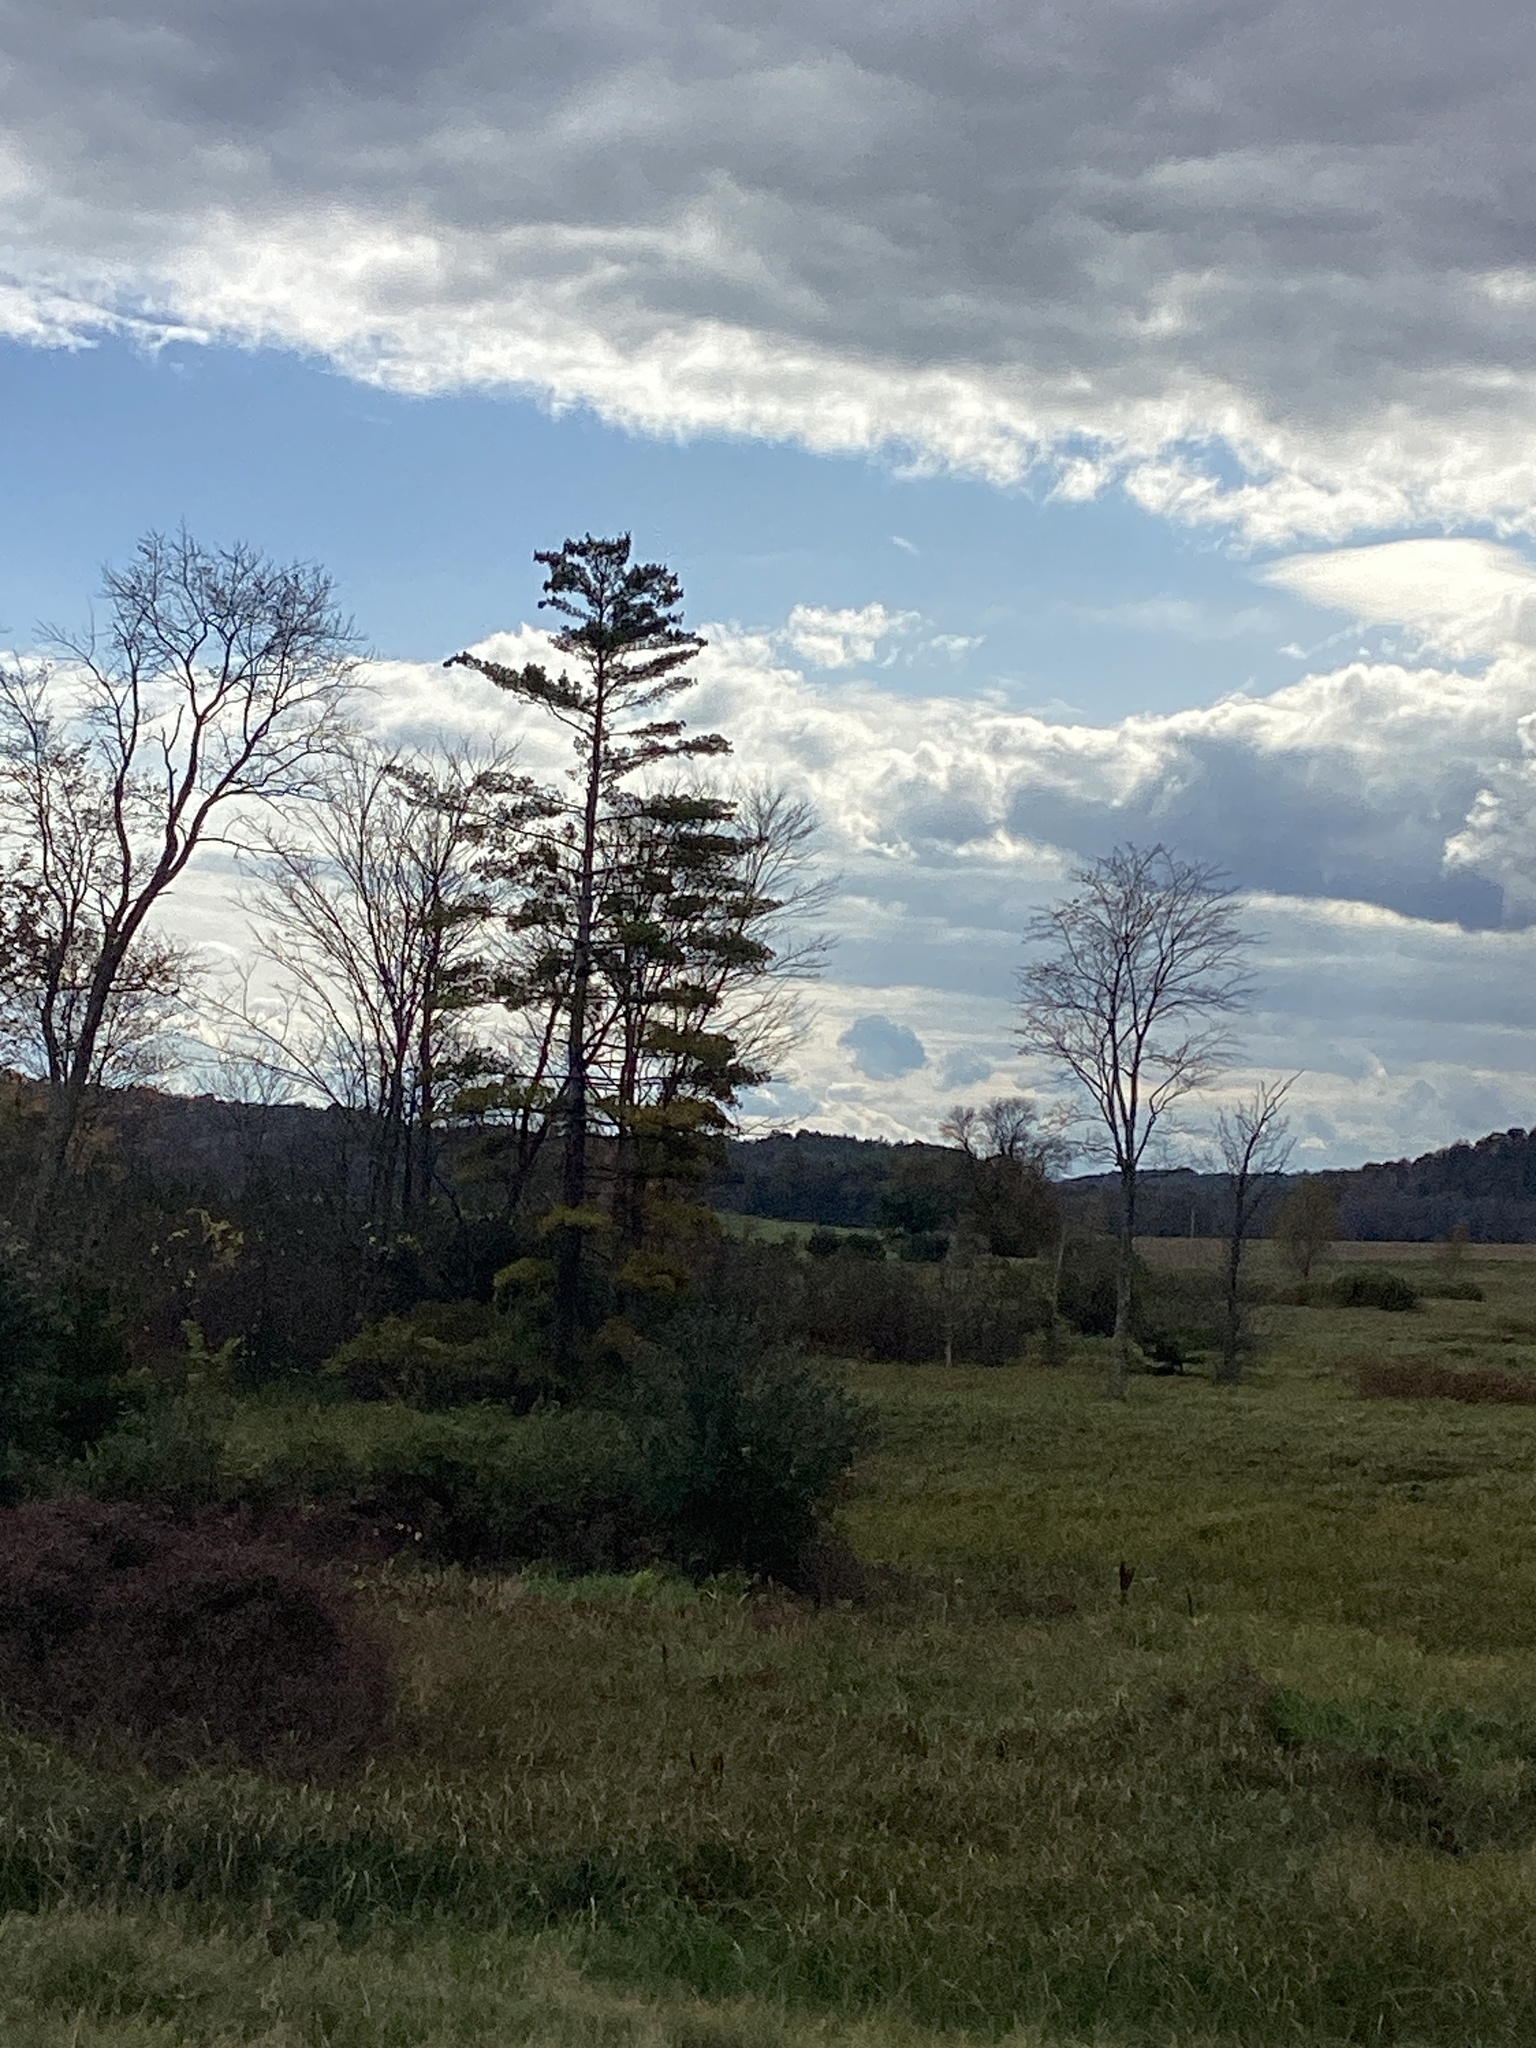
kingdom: Plantae
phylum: Tracheophyta
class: Pinopsida
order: Pinales
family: Pinaceae
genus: Pinus
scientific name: Pinus strobus
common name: Weymouth pine
